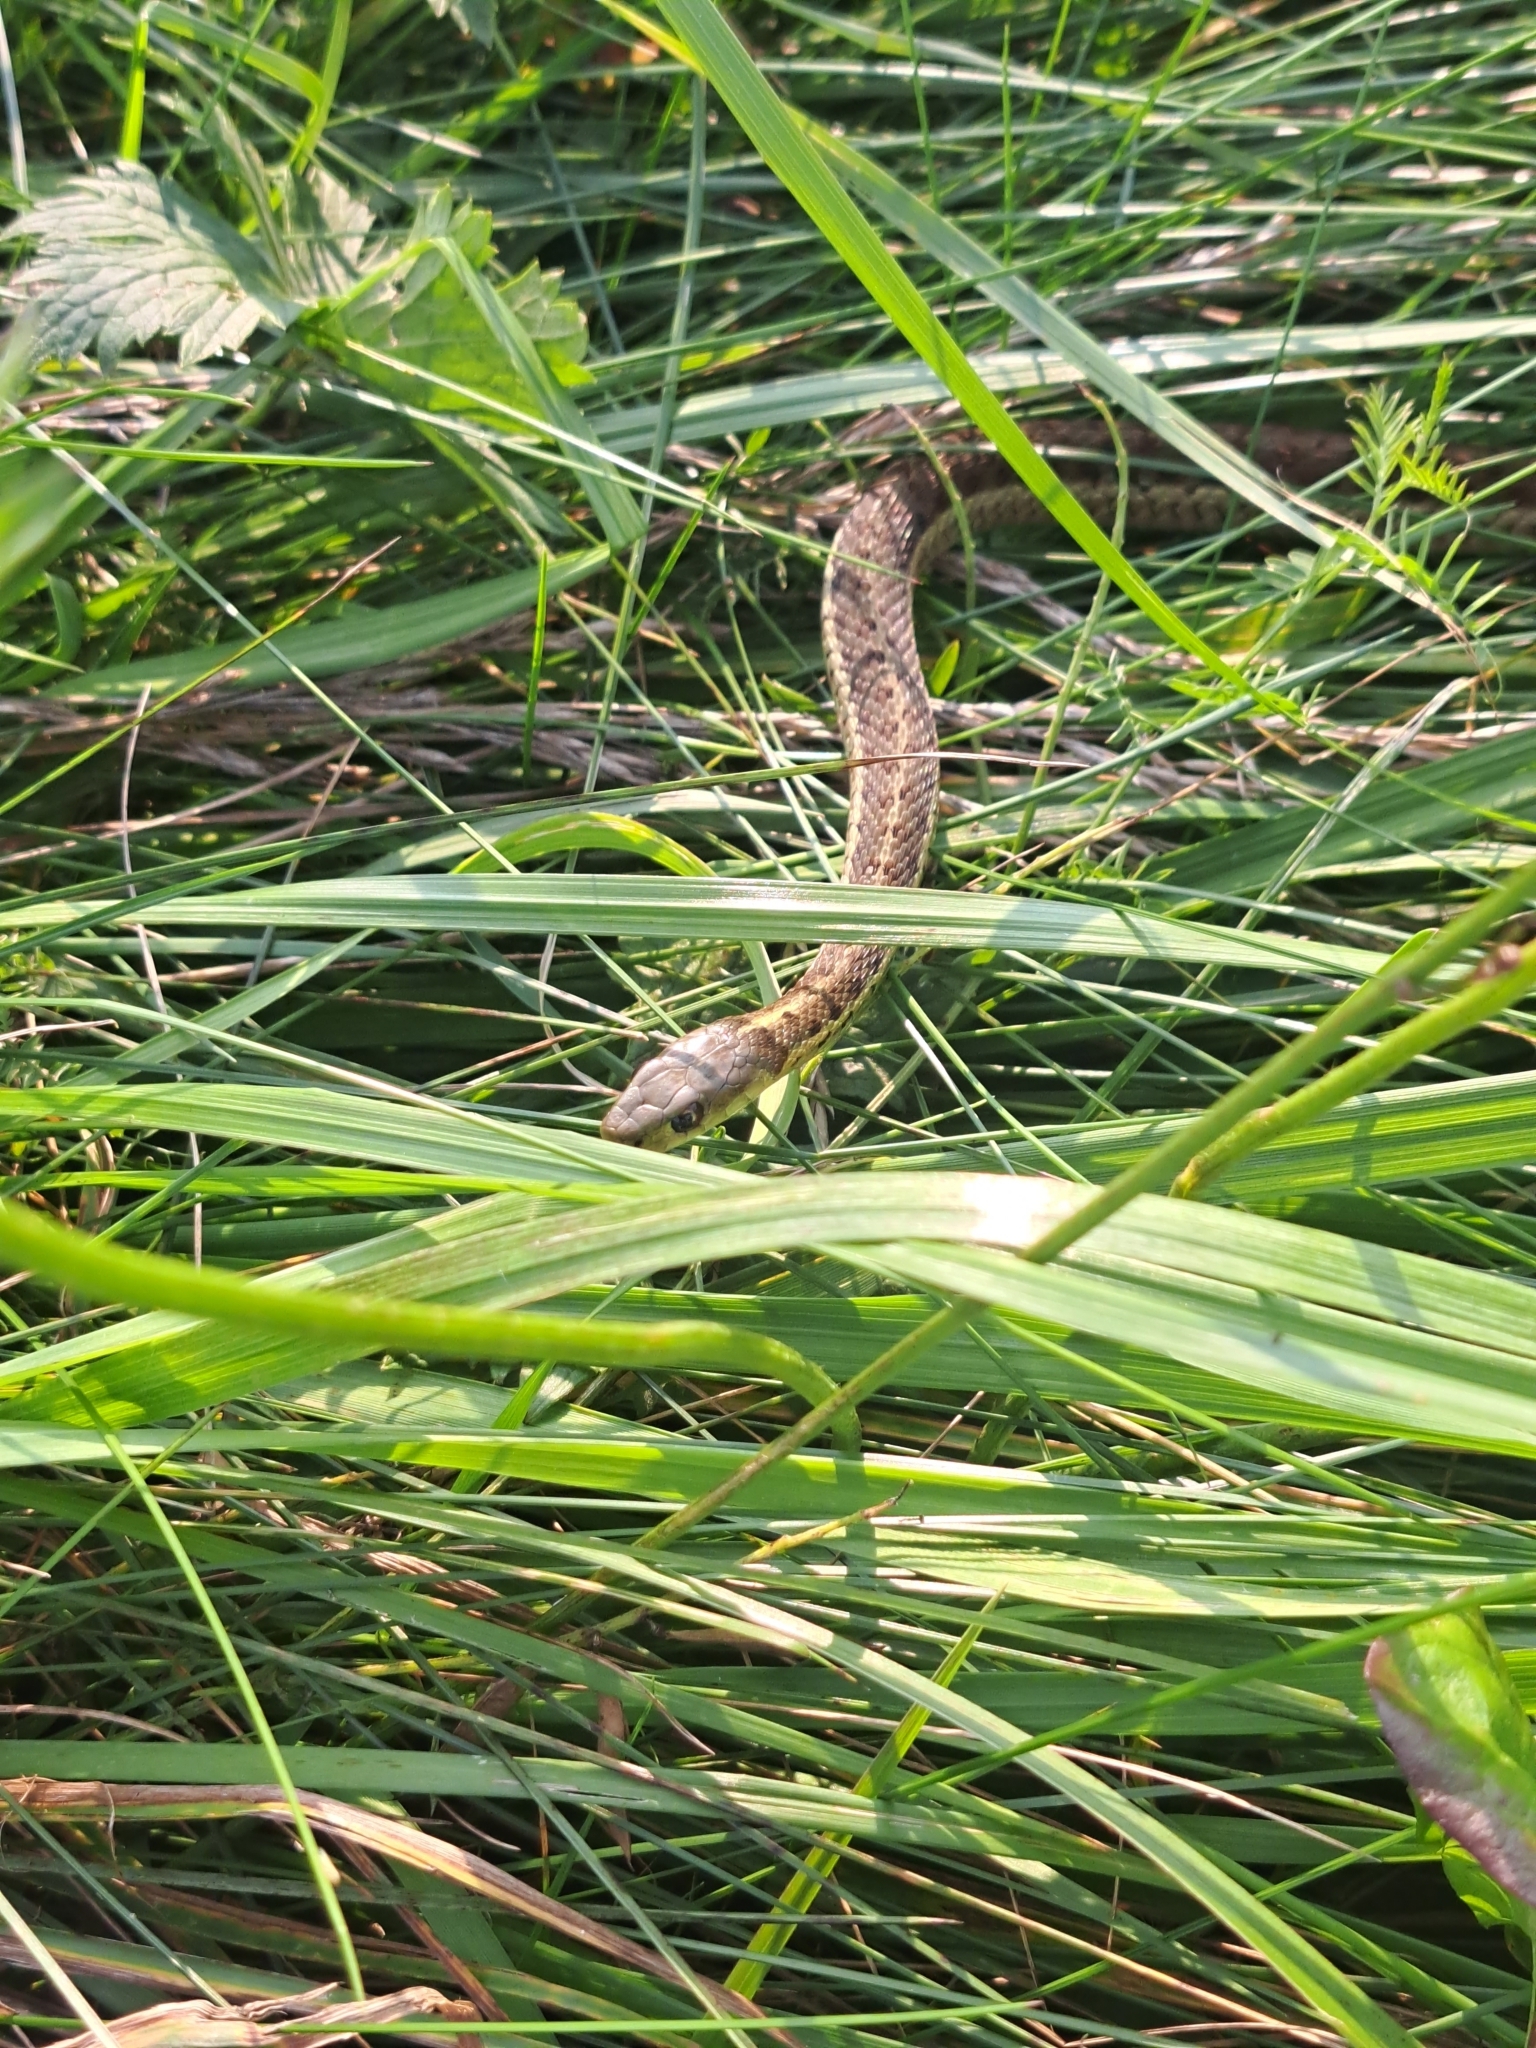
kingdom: Animalia
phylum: Chordata
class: Squamata
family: Colubridae
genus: Thamnophis
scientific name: Thamnophis sirtalis
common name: Common garter snake
